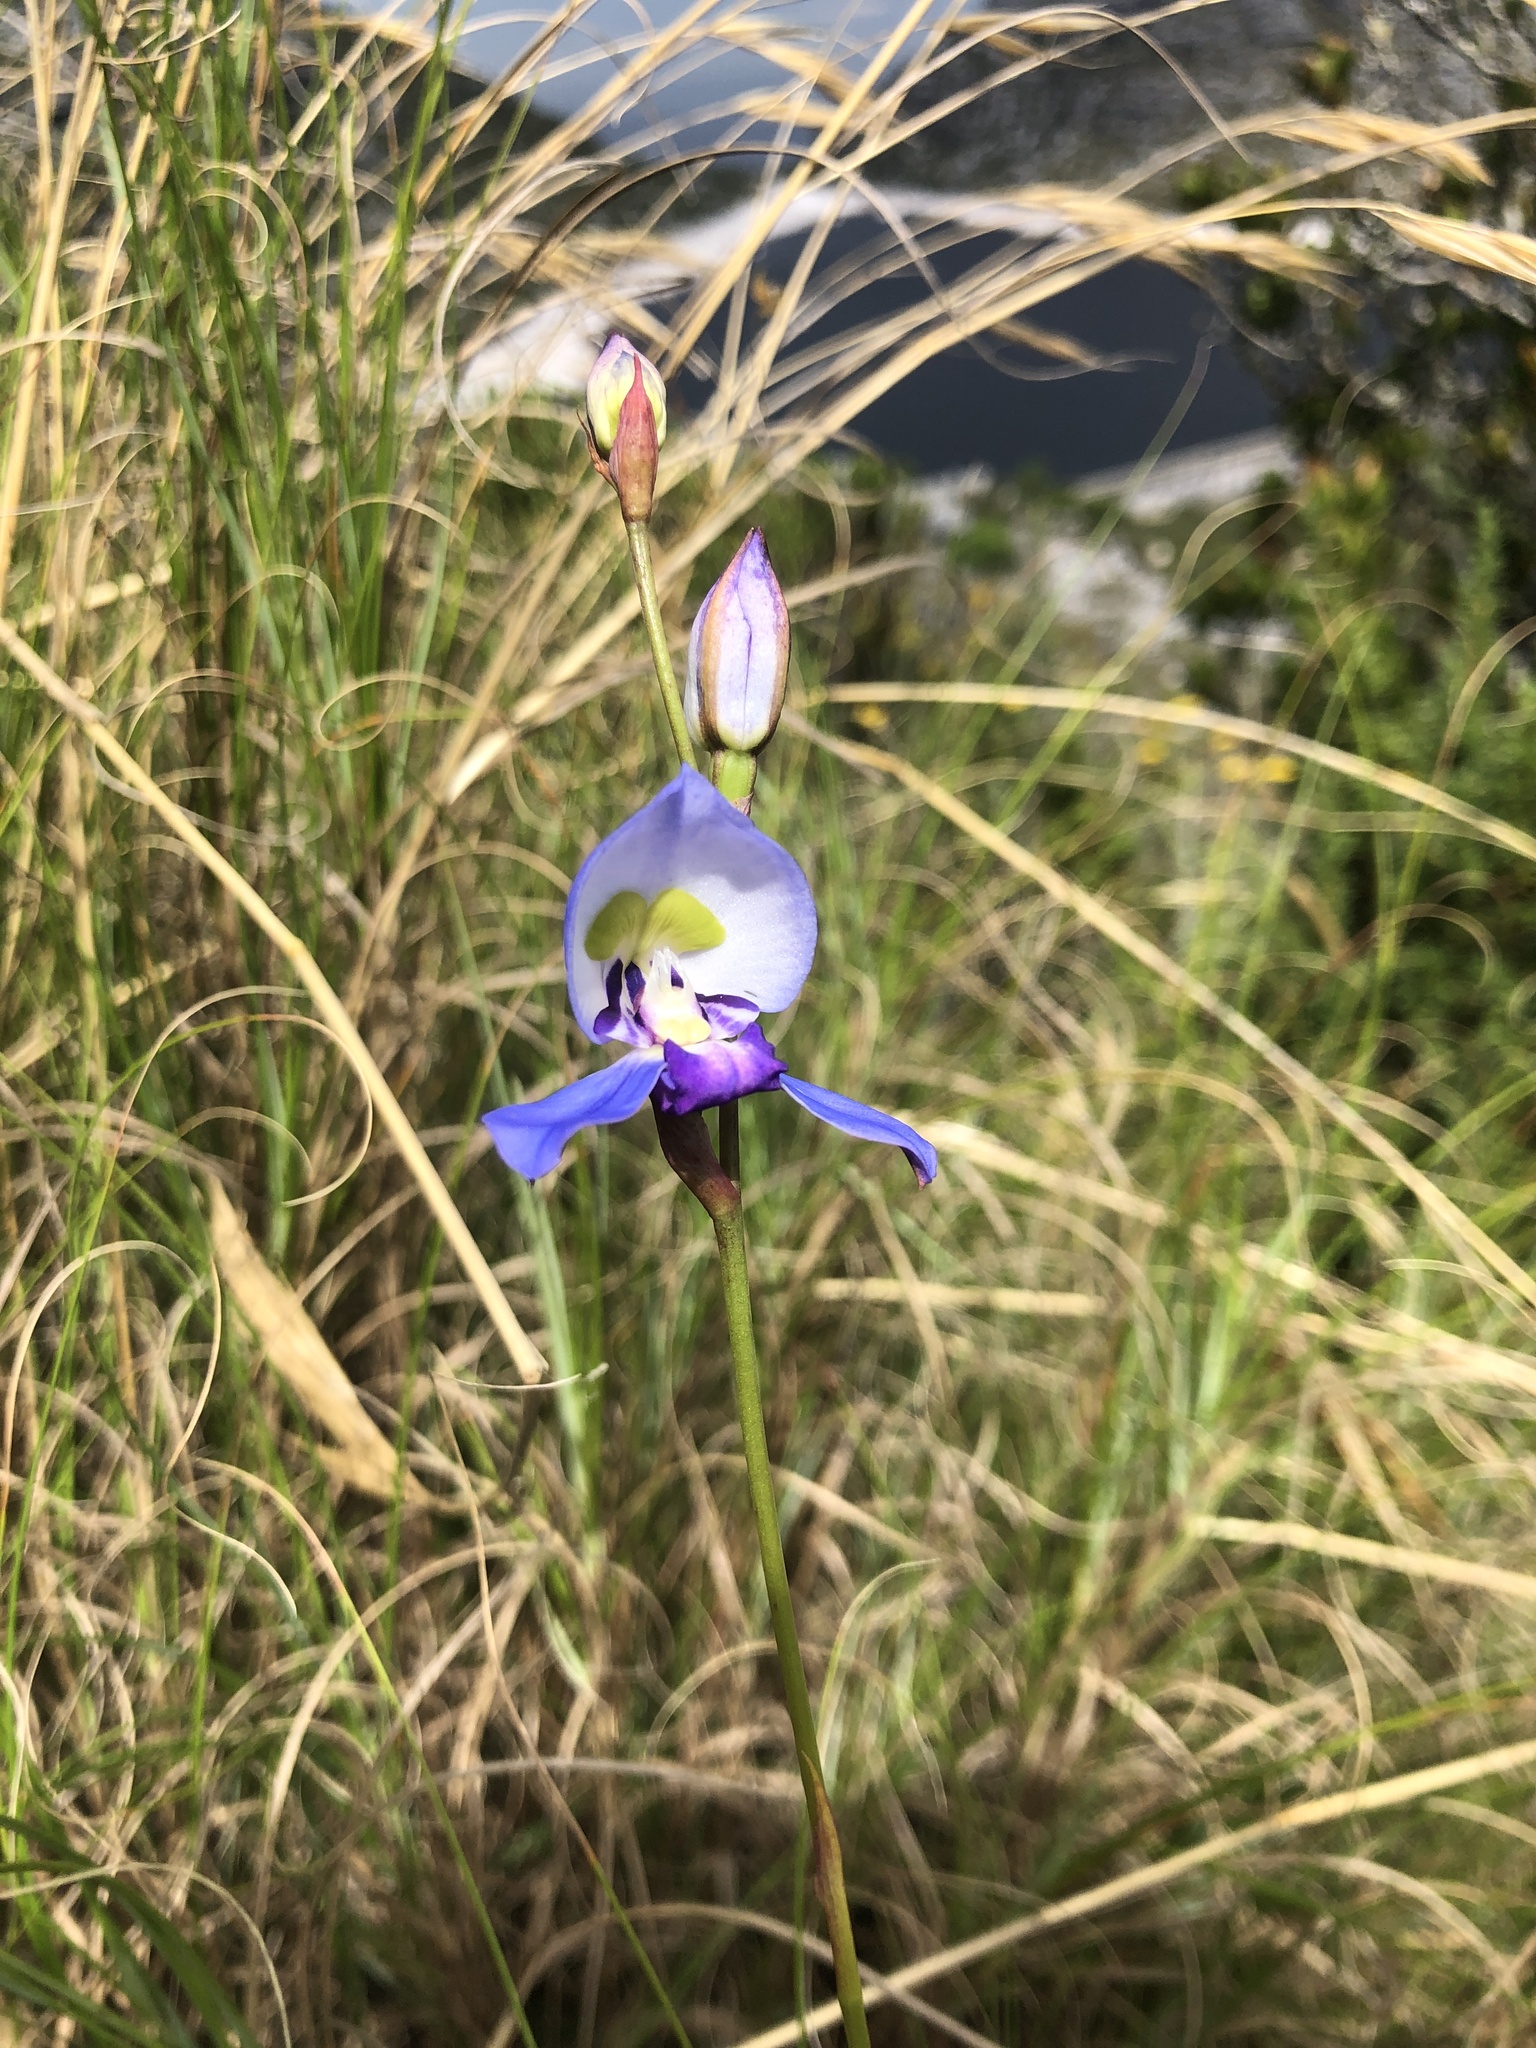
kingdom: Plantae
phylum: Tracheophyta
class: Liliopsida
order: Asparagales
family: Orchidaceae
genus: Disa
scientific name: Disa graminifolia
